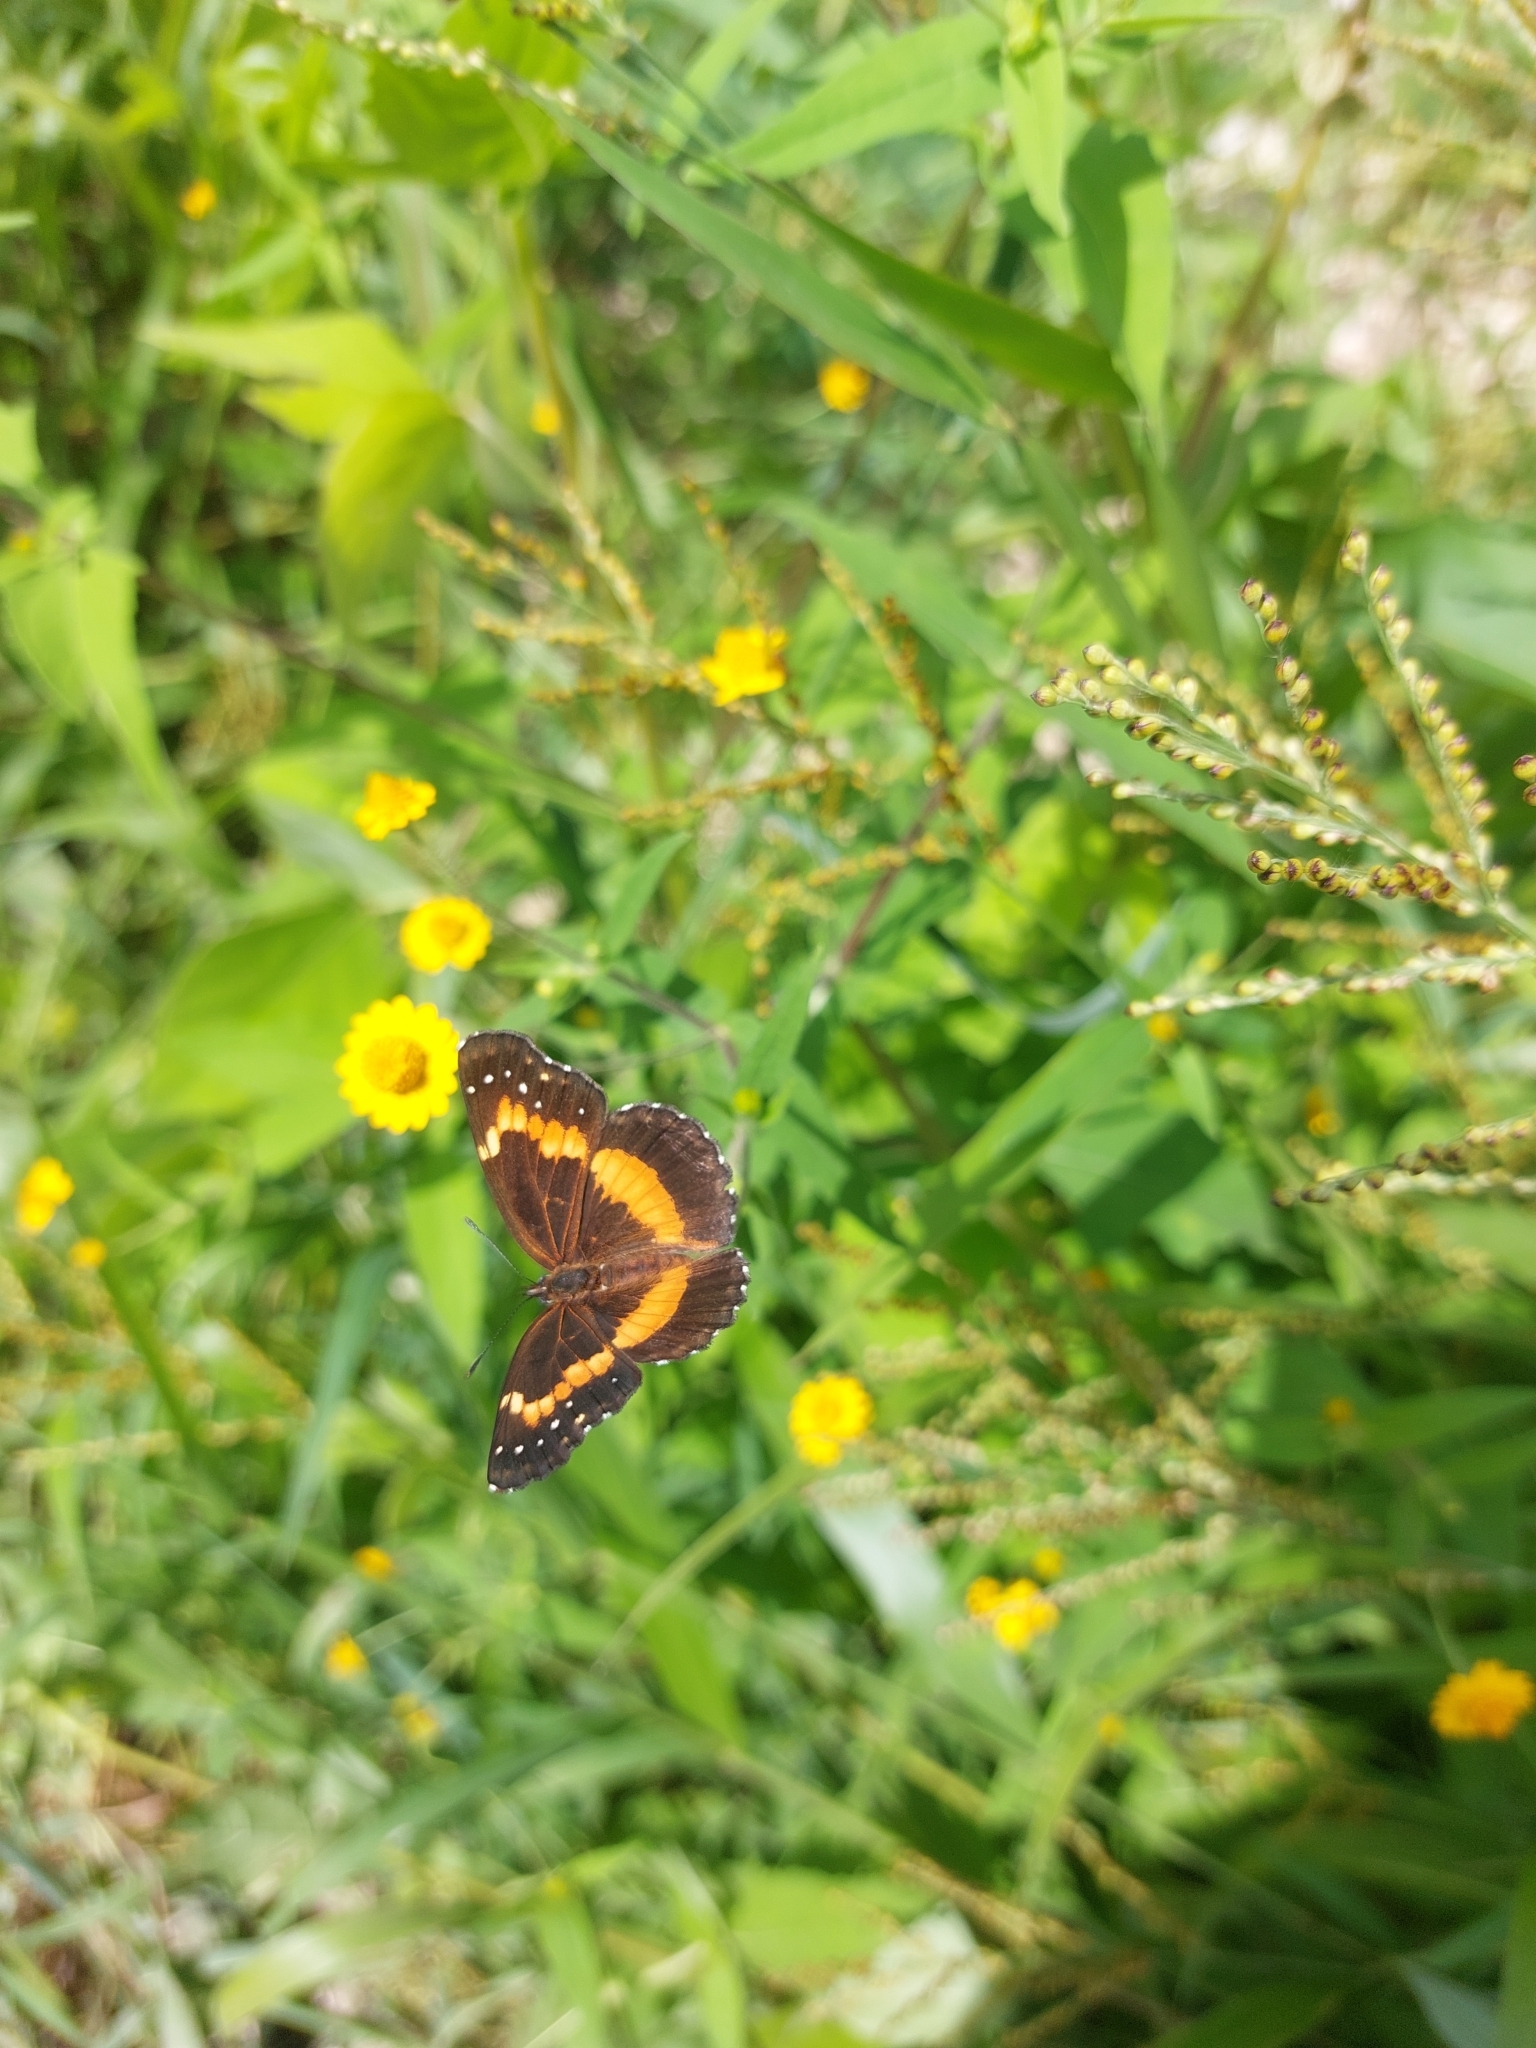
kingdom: Animalia
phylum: Arthropoda
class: Insecta
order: Lepidoptera
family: Nymphalidae
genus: Chlosyne
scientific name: Chlosyne lacinia
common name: Bordered patch
